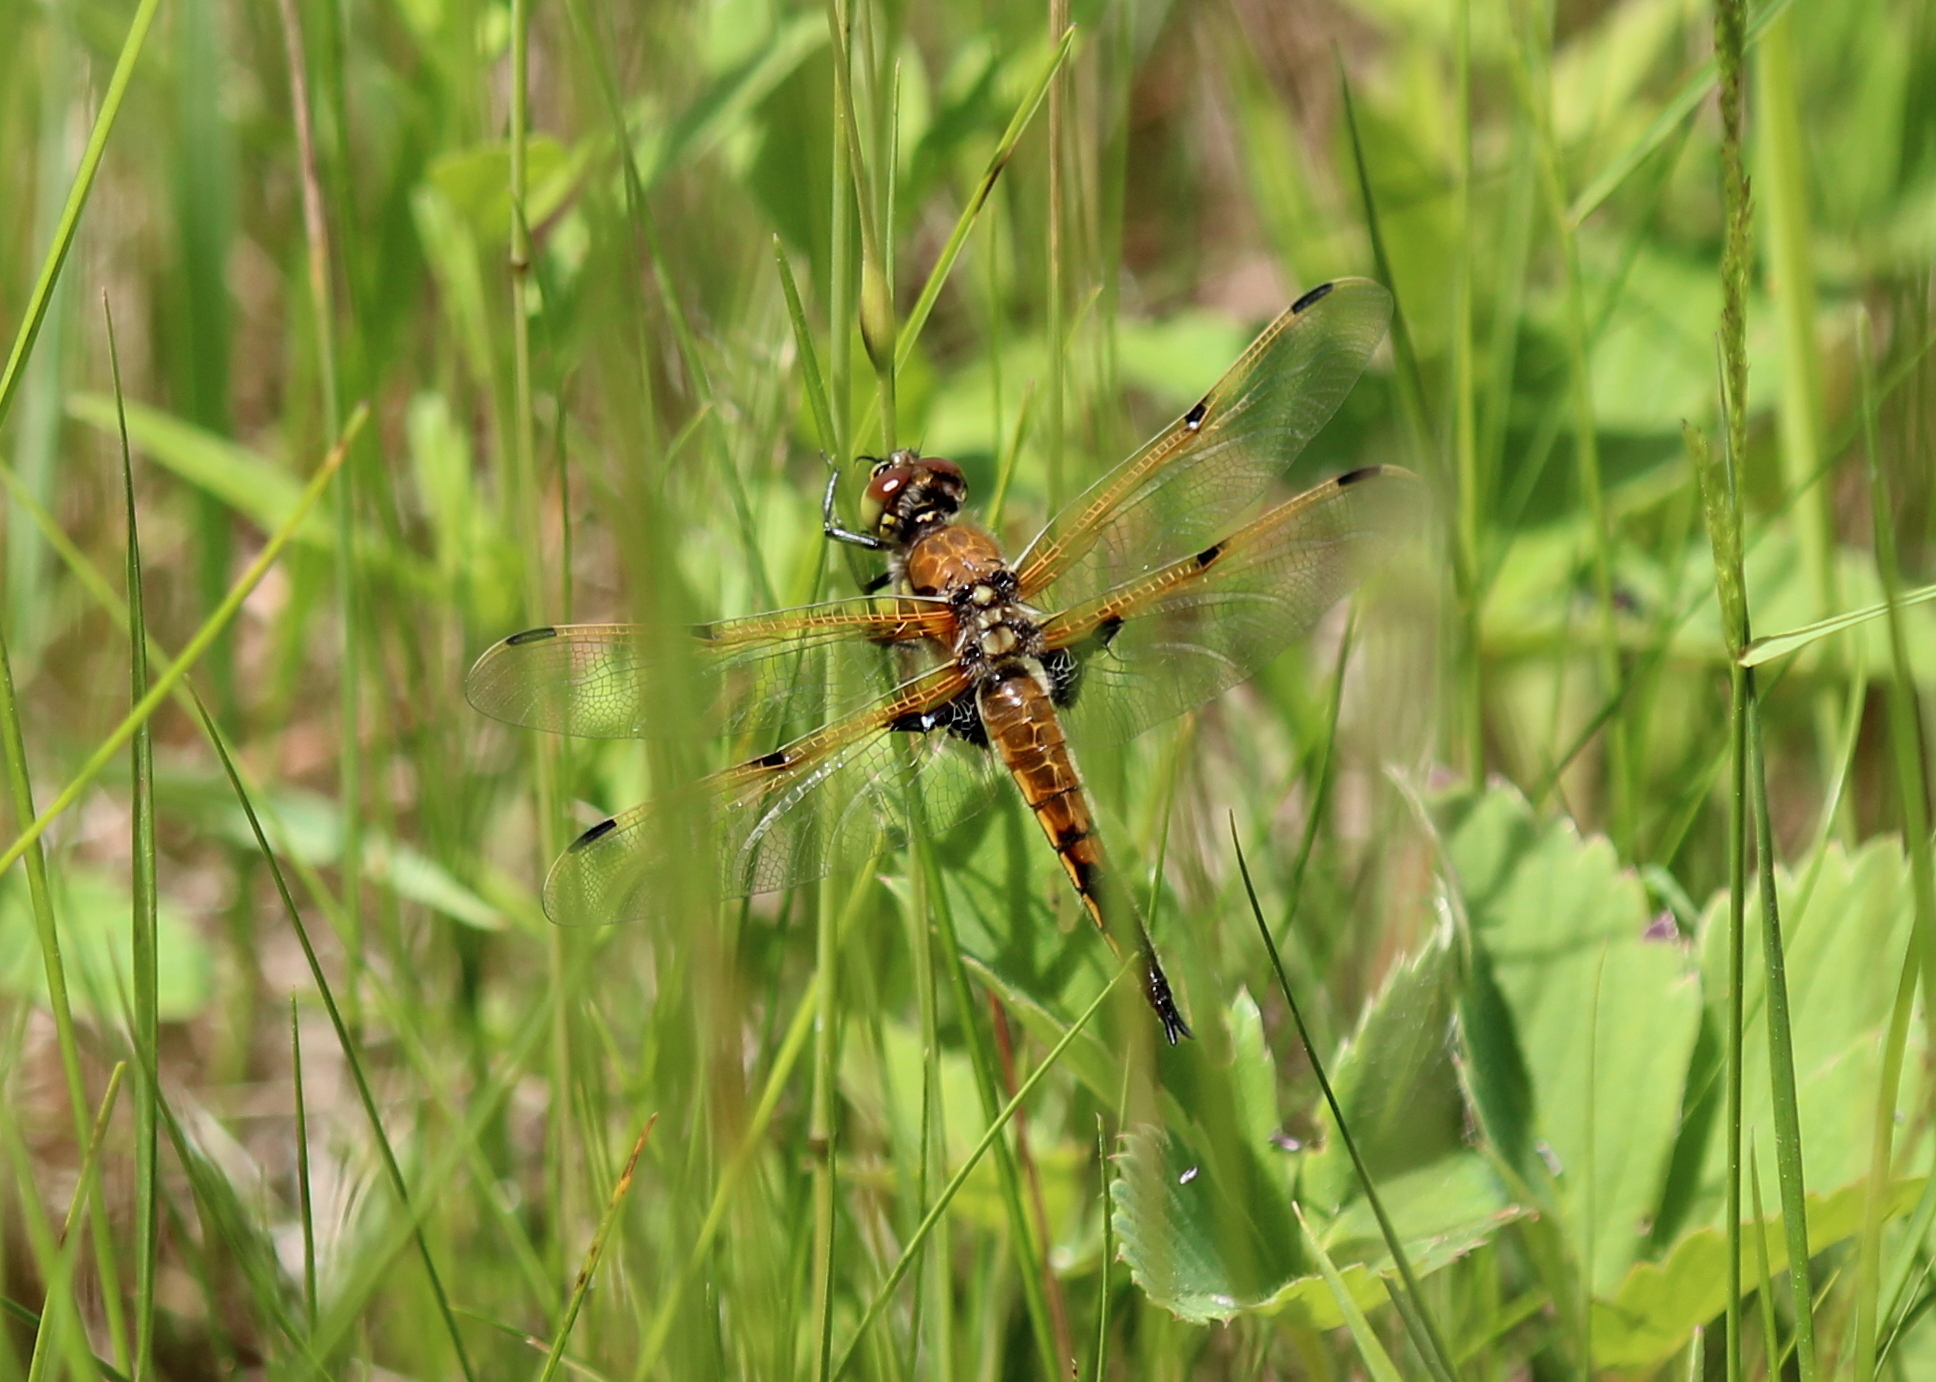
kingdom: Animalia
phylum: Arthropoda
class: Insecta
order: Odonata
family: Libellulidae
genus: Libellula
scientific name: Libellula quadrimaculata
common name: Four-spotted chaser
